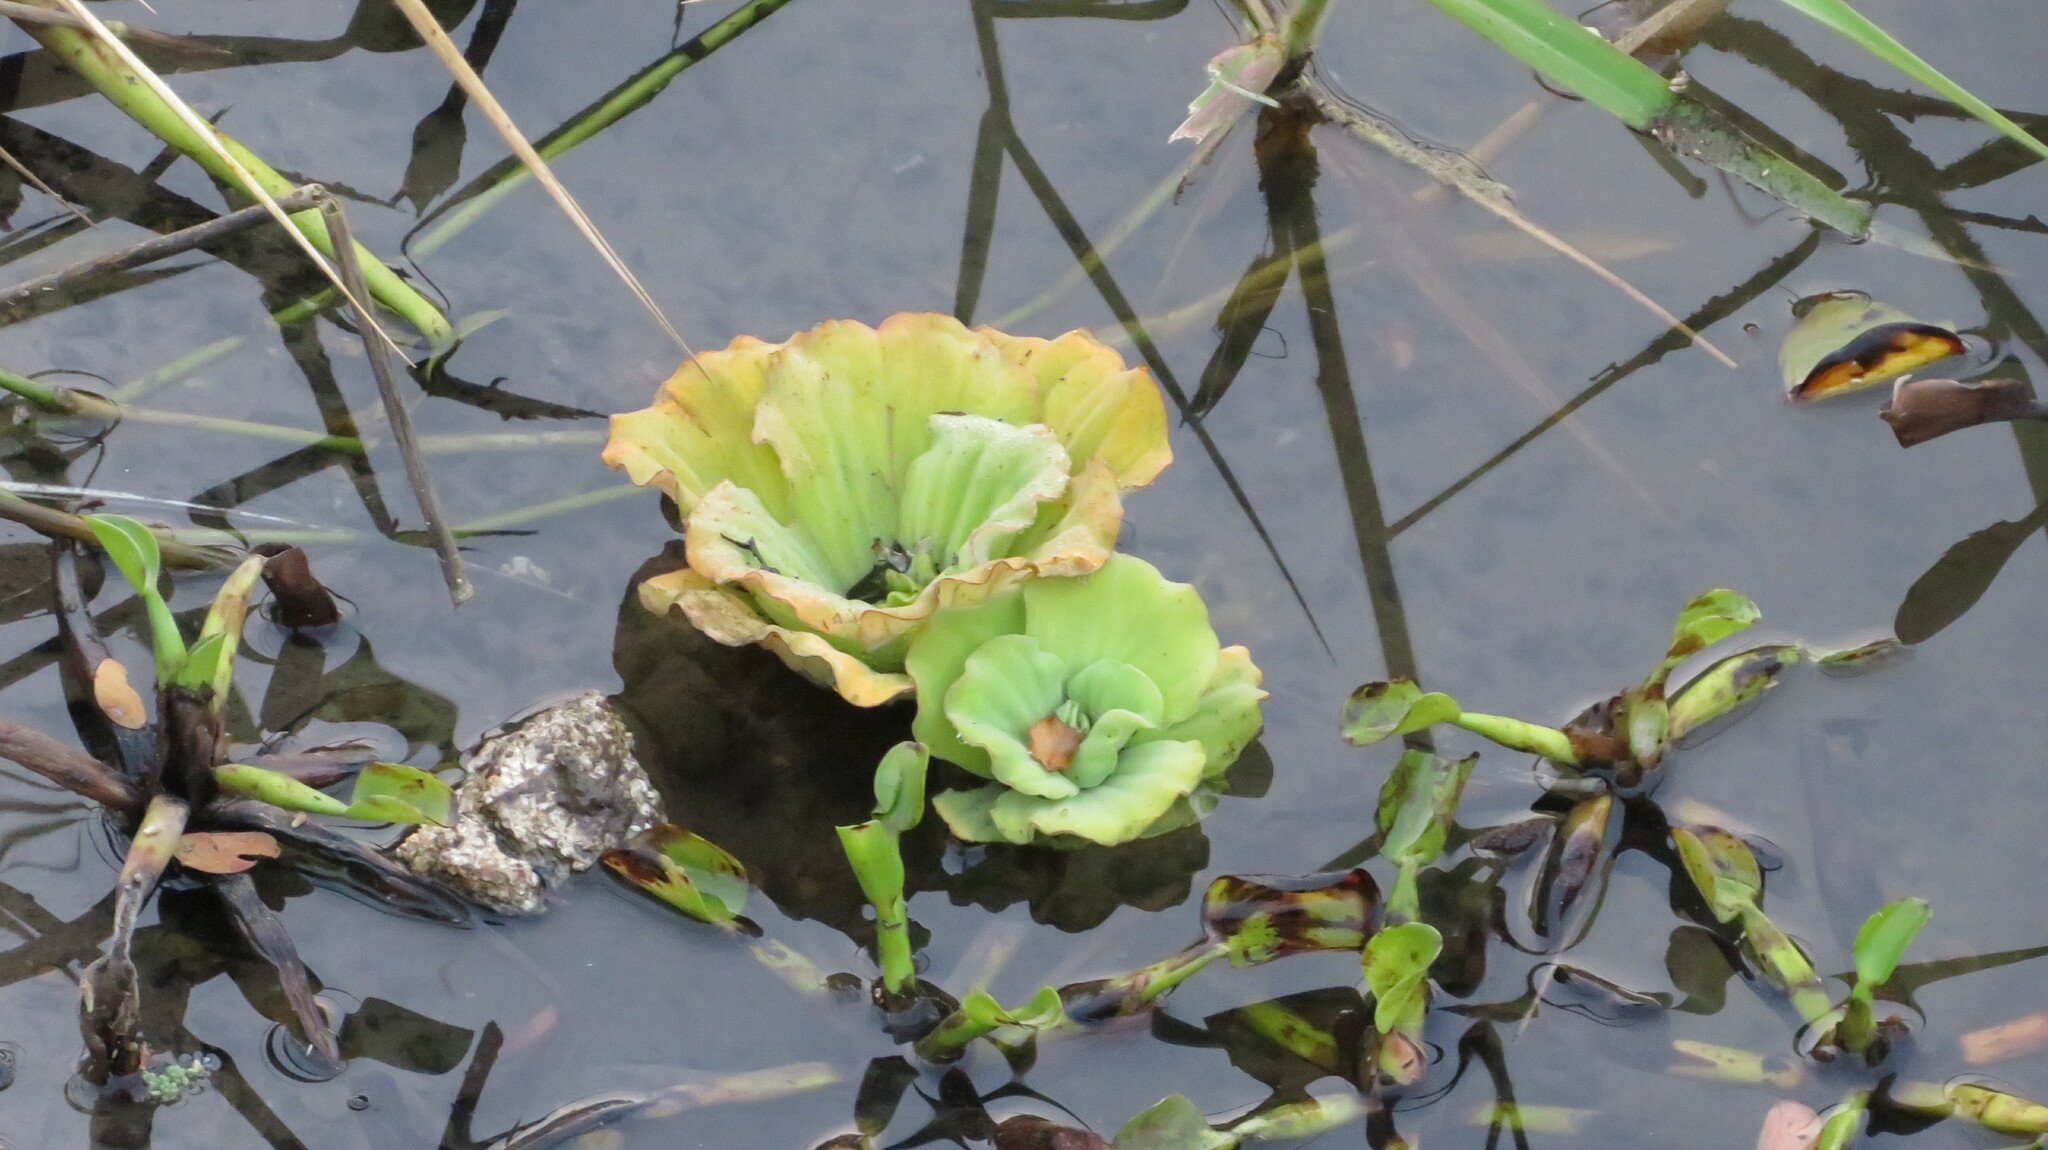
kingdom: Plantae
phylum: Tracheophyta
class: Liliopsida
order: Alismatales
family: Araceae
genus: Pistia
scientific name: Pistia stratiotes
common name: Water lettuce
